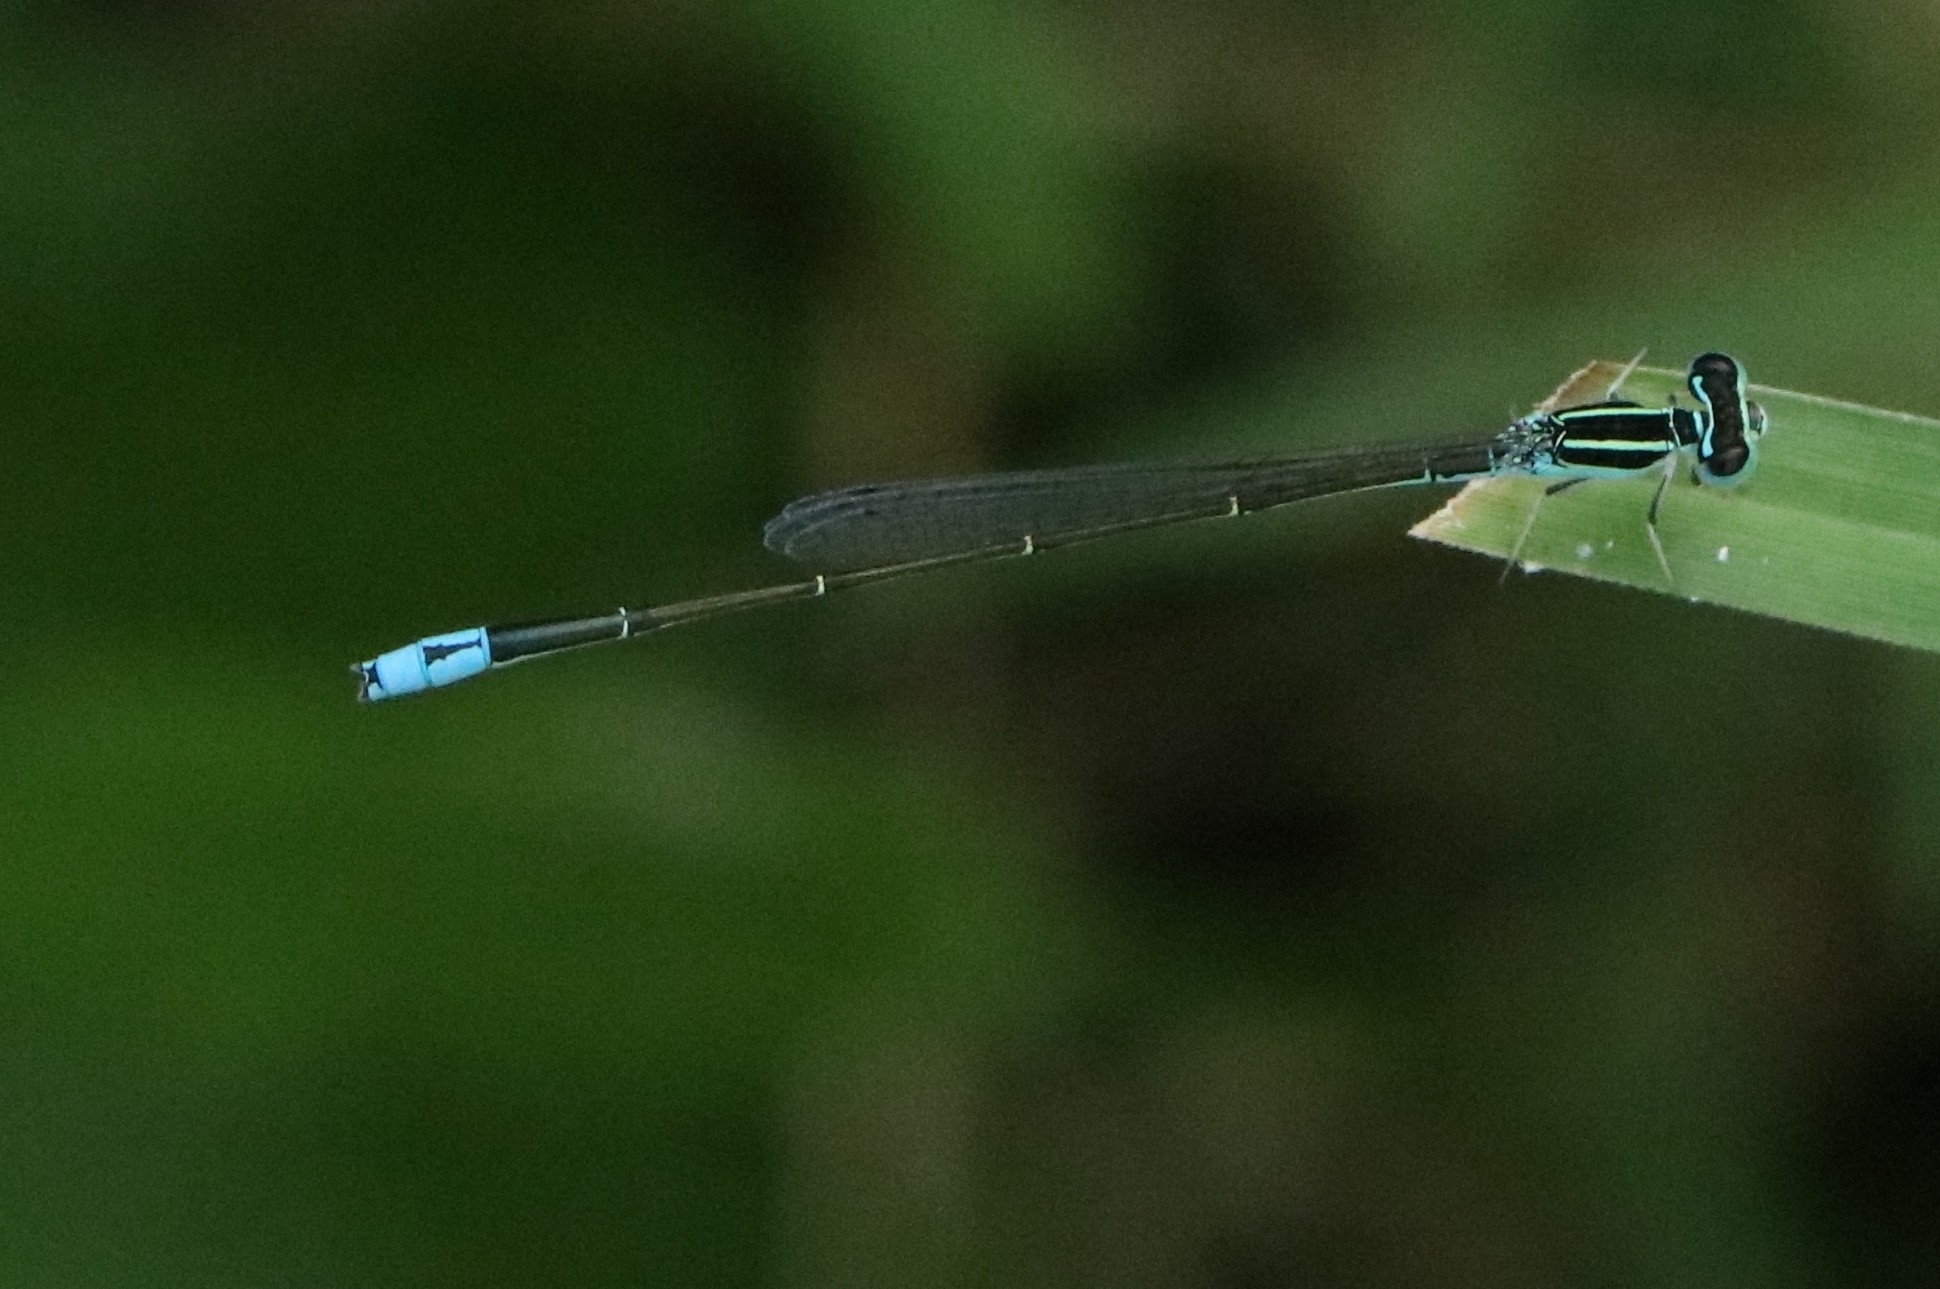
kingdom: Animalia
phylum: Arthropoda
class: Insecta
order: Odonata
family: Coenagrionidae
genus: Aciagrion
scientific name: Aciagrion occidentale
